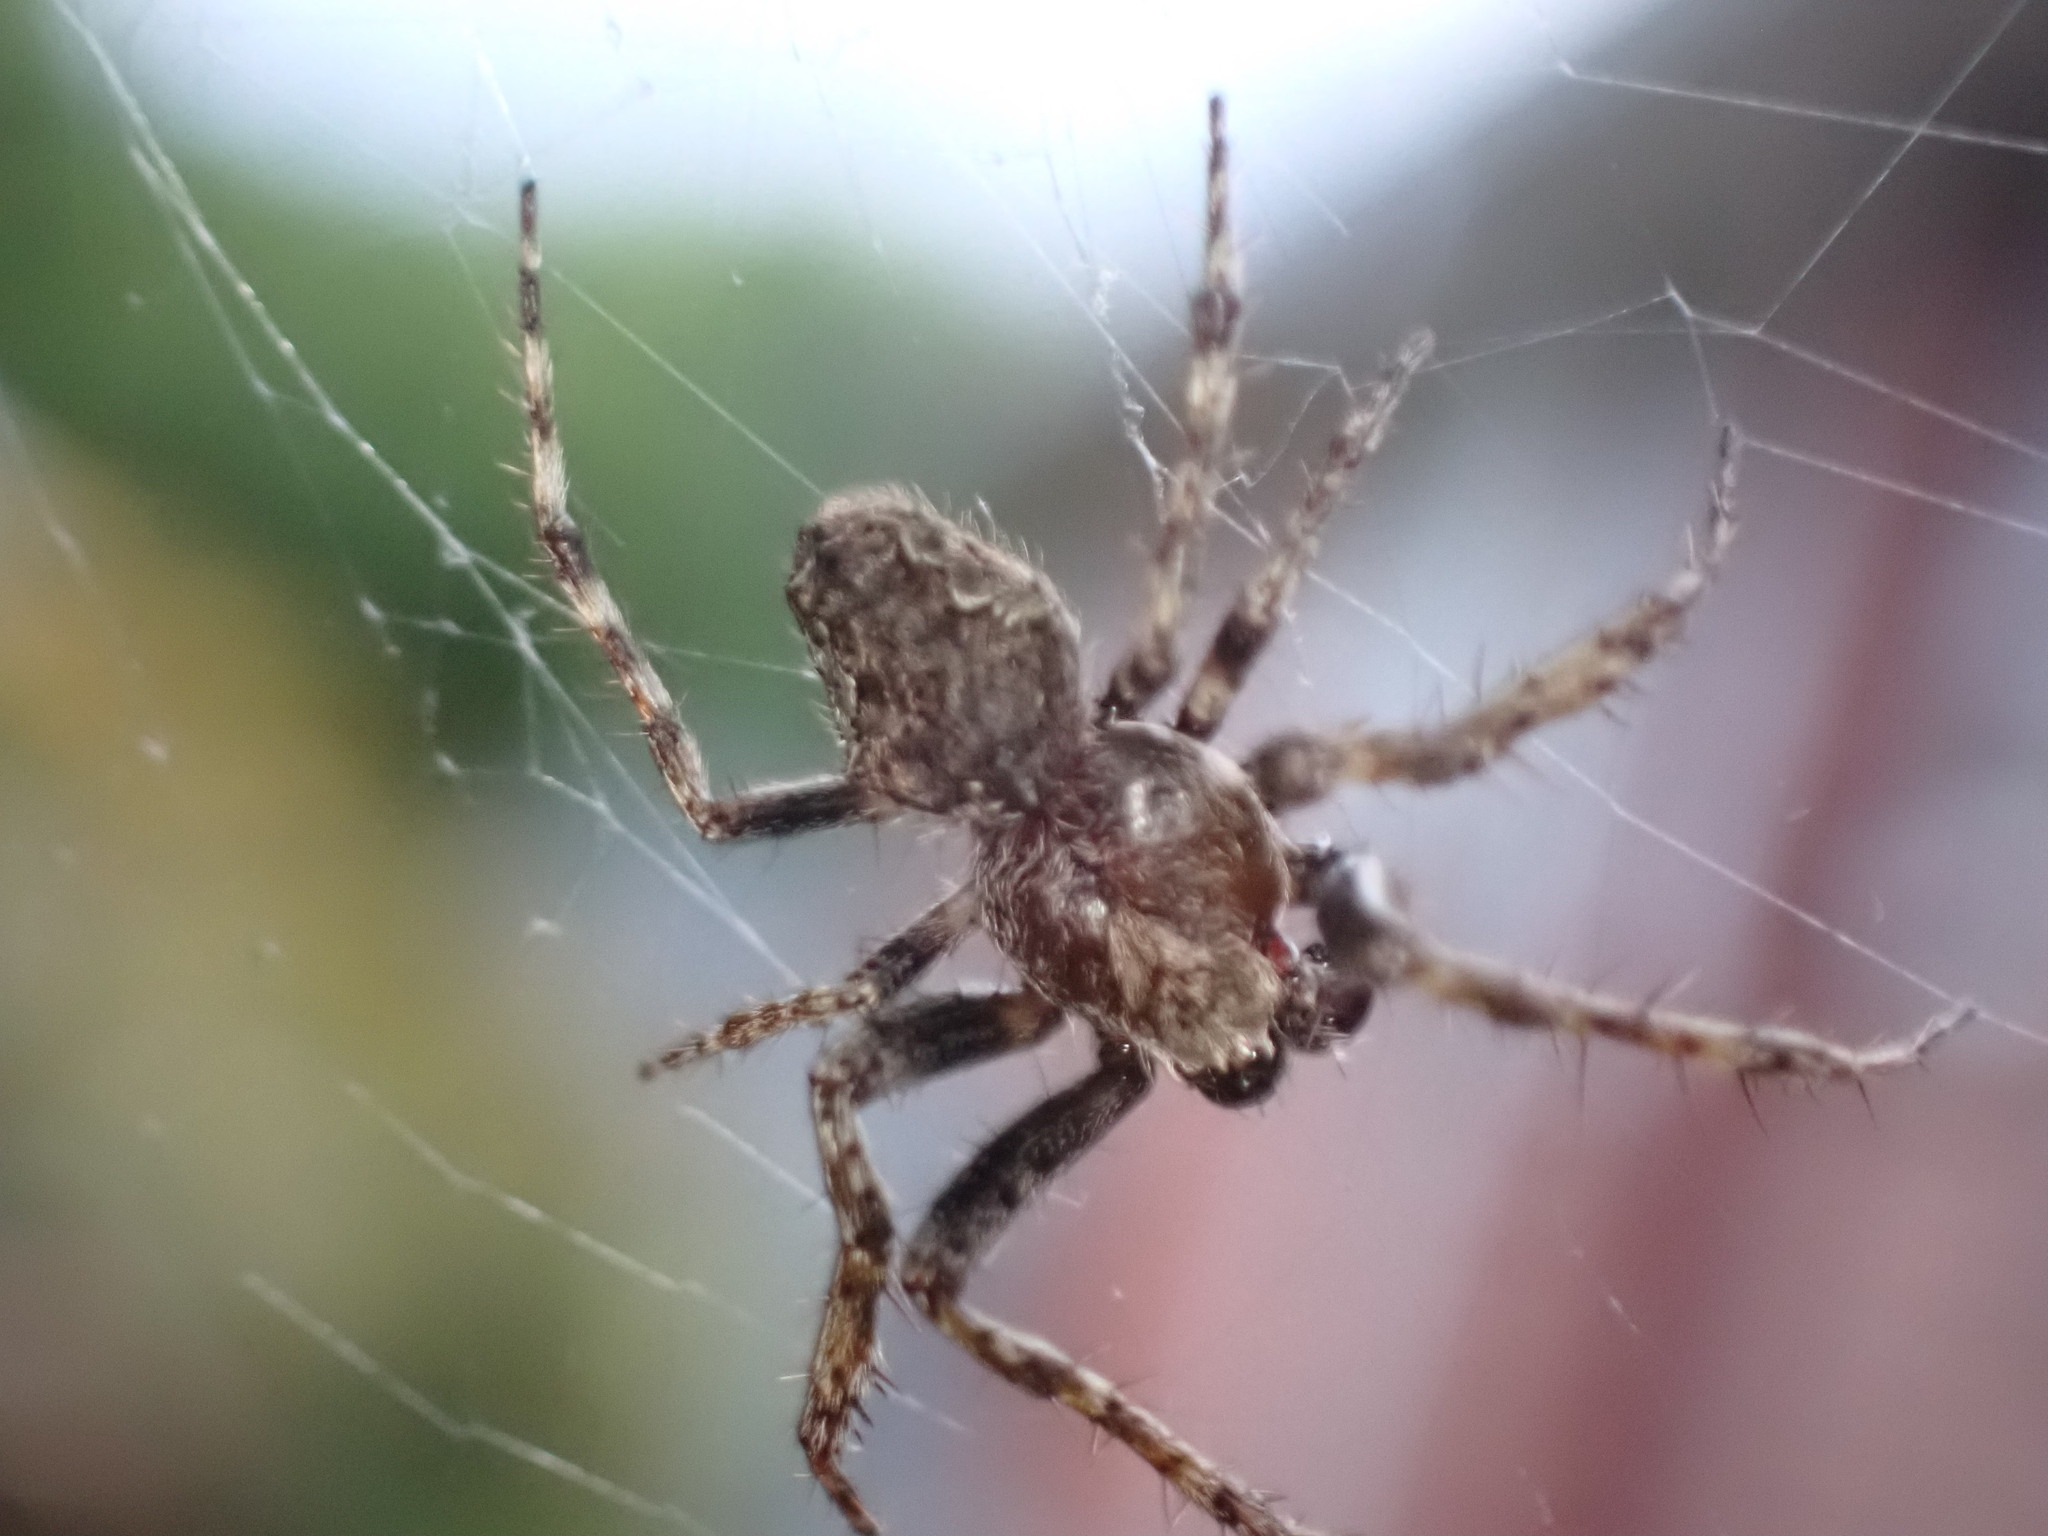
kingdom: Animalia
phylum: Arthropoda
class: Arachnida
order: Araneae
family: Araneidae
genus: Eriophora
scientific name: Eriophora pustulosa
